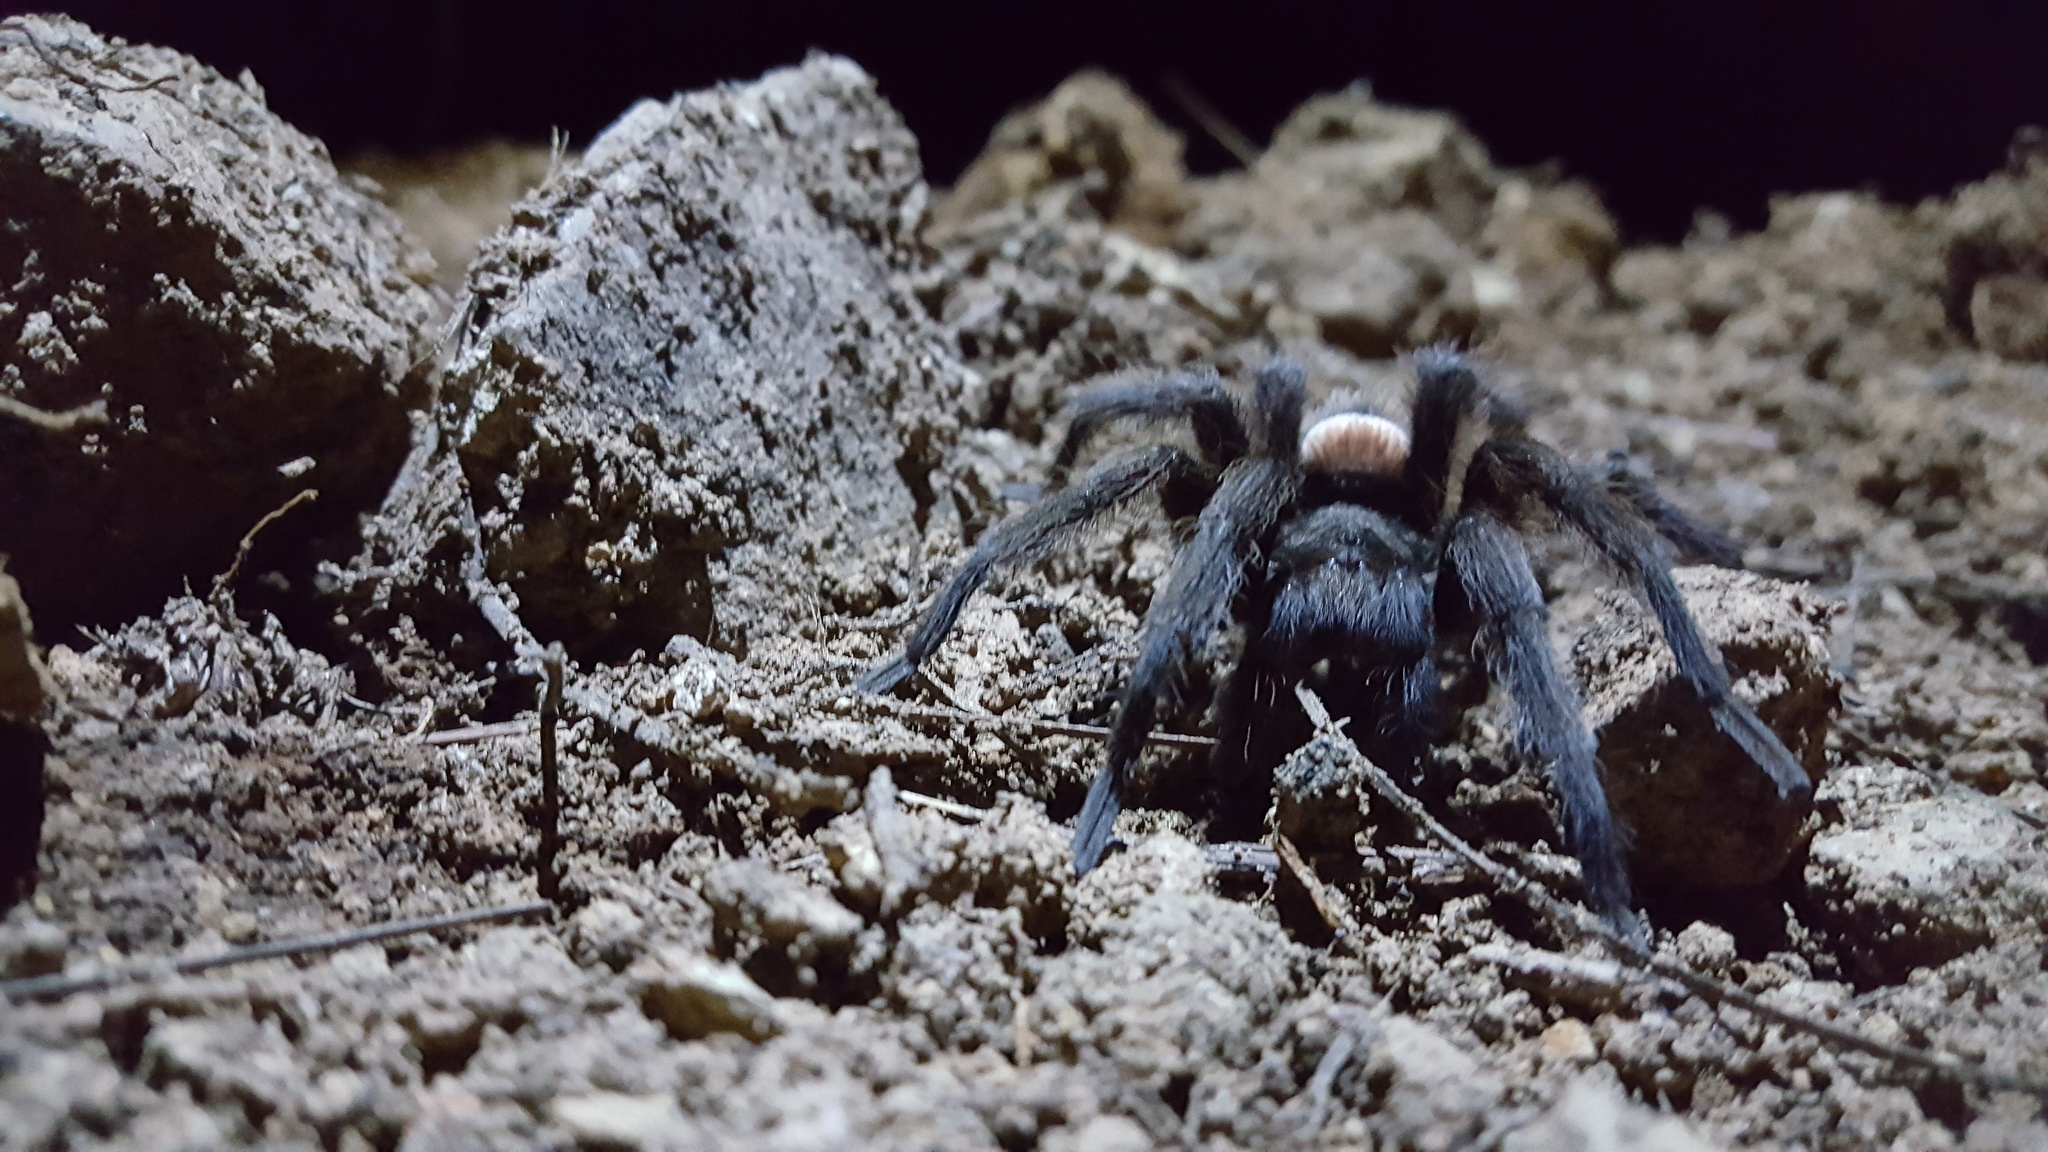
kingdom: Animalia
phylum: Arthropoda
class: Arachnida
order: Araneae
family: Theraphosidae
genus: Hemirrhagus
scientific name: Hemirrhagus eros
